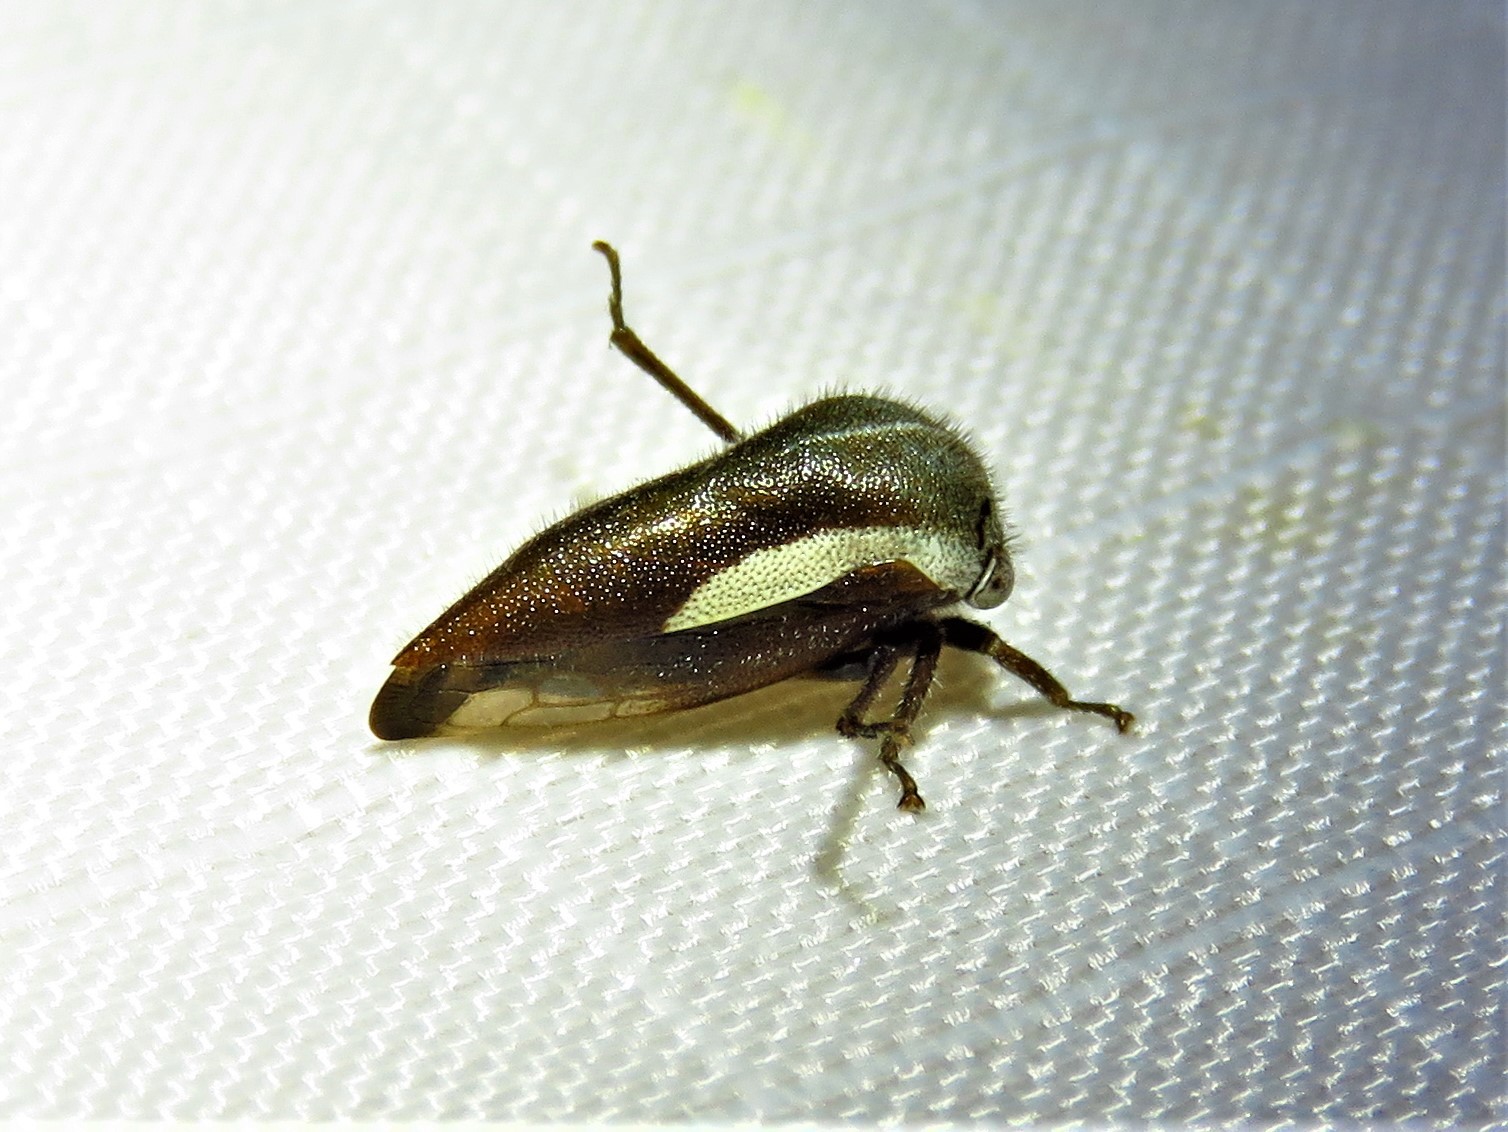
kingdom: Animalia
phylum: Arthropoda
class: Insecta
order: Hemiptera
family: Membracidae
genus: Ophiderma
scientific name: Ophiderma flavicephala
